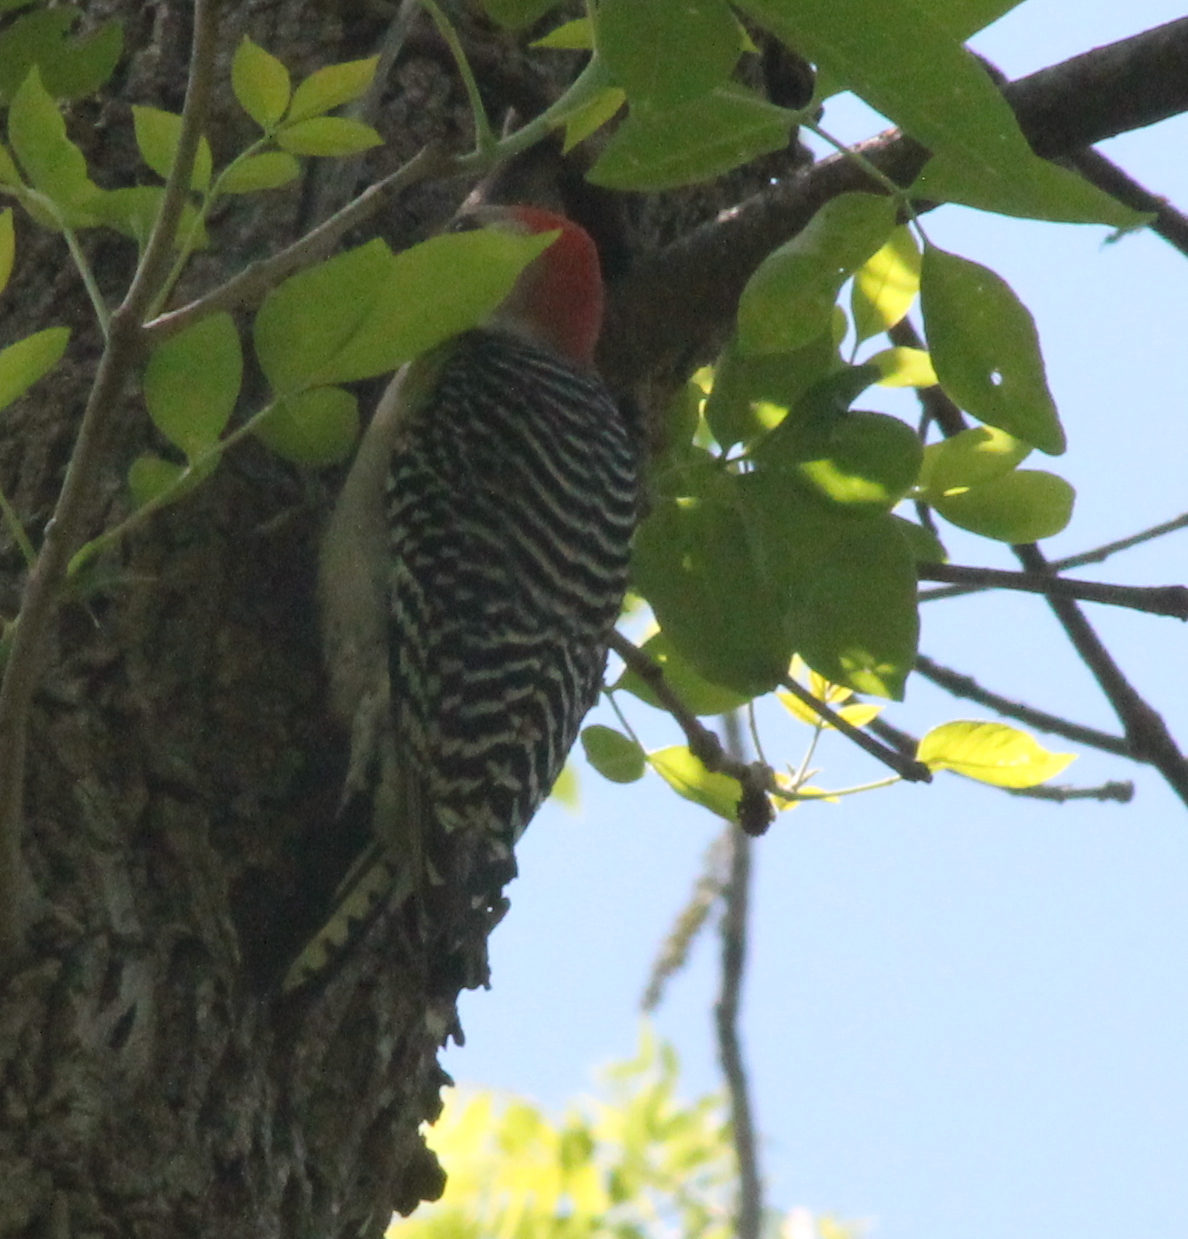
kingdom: Animalia
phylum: Chordata
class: Aves
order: Piciformes
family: Picidae
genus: Melanerpes
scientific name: Melanerpes carolinus
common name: Red-bellied woodpecker
